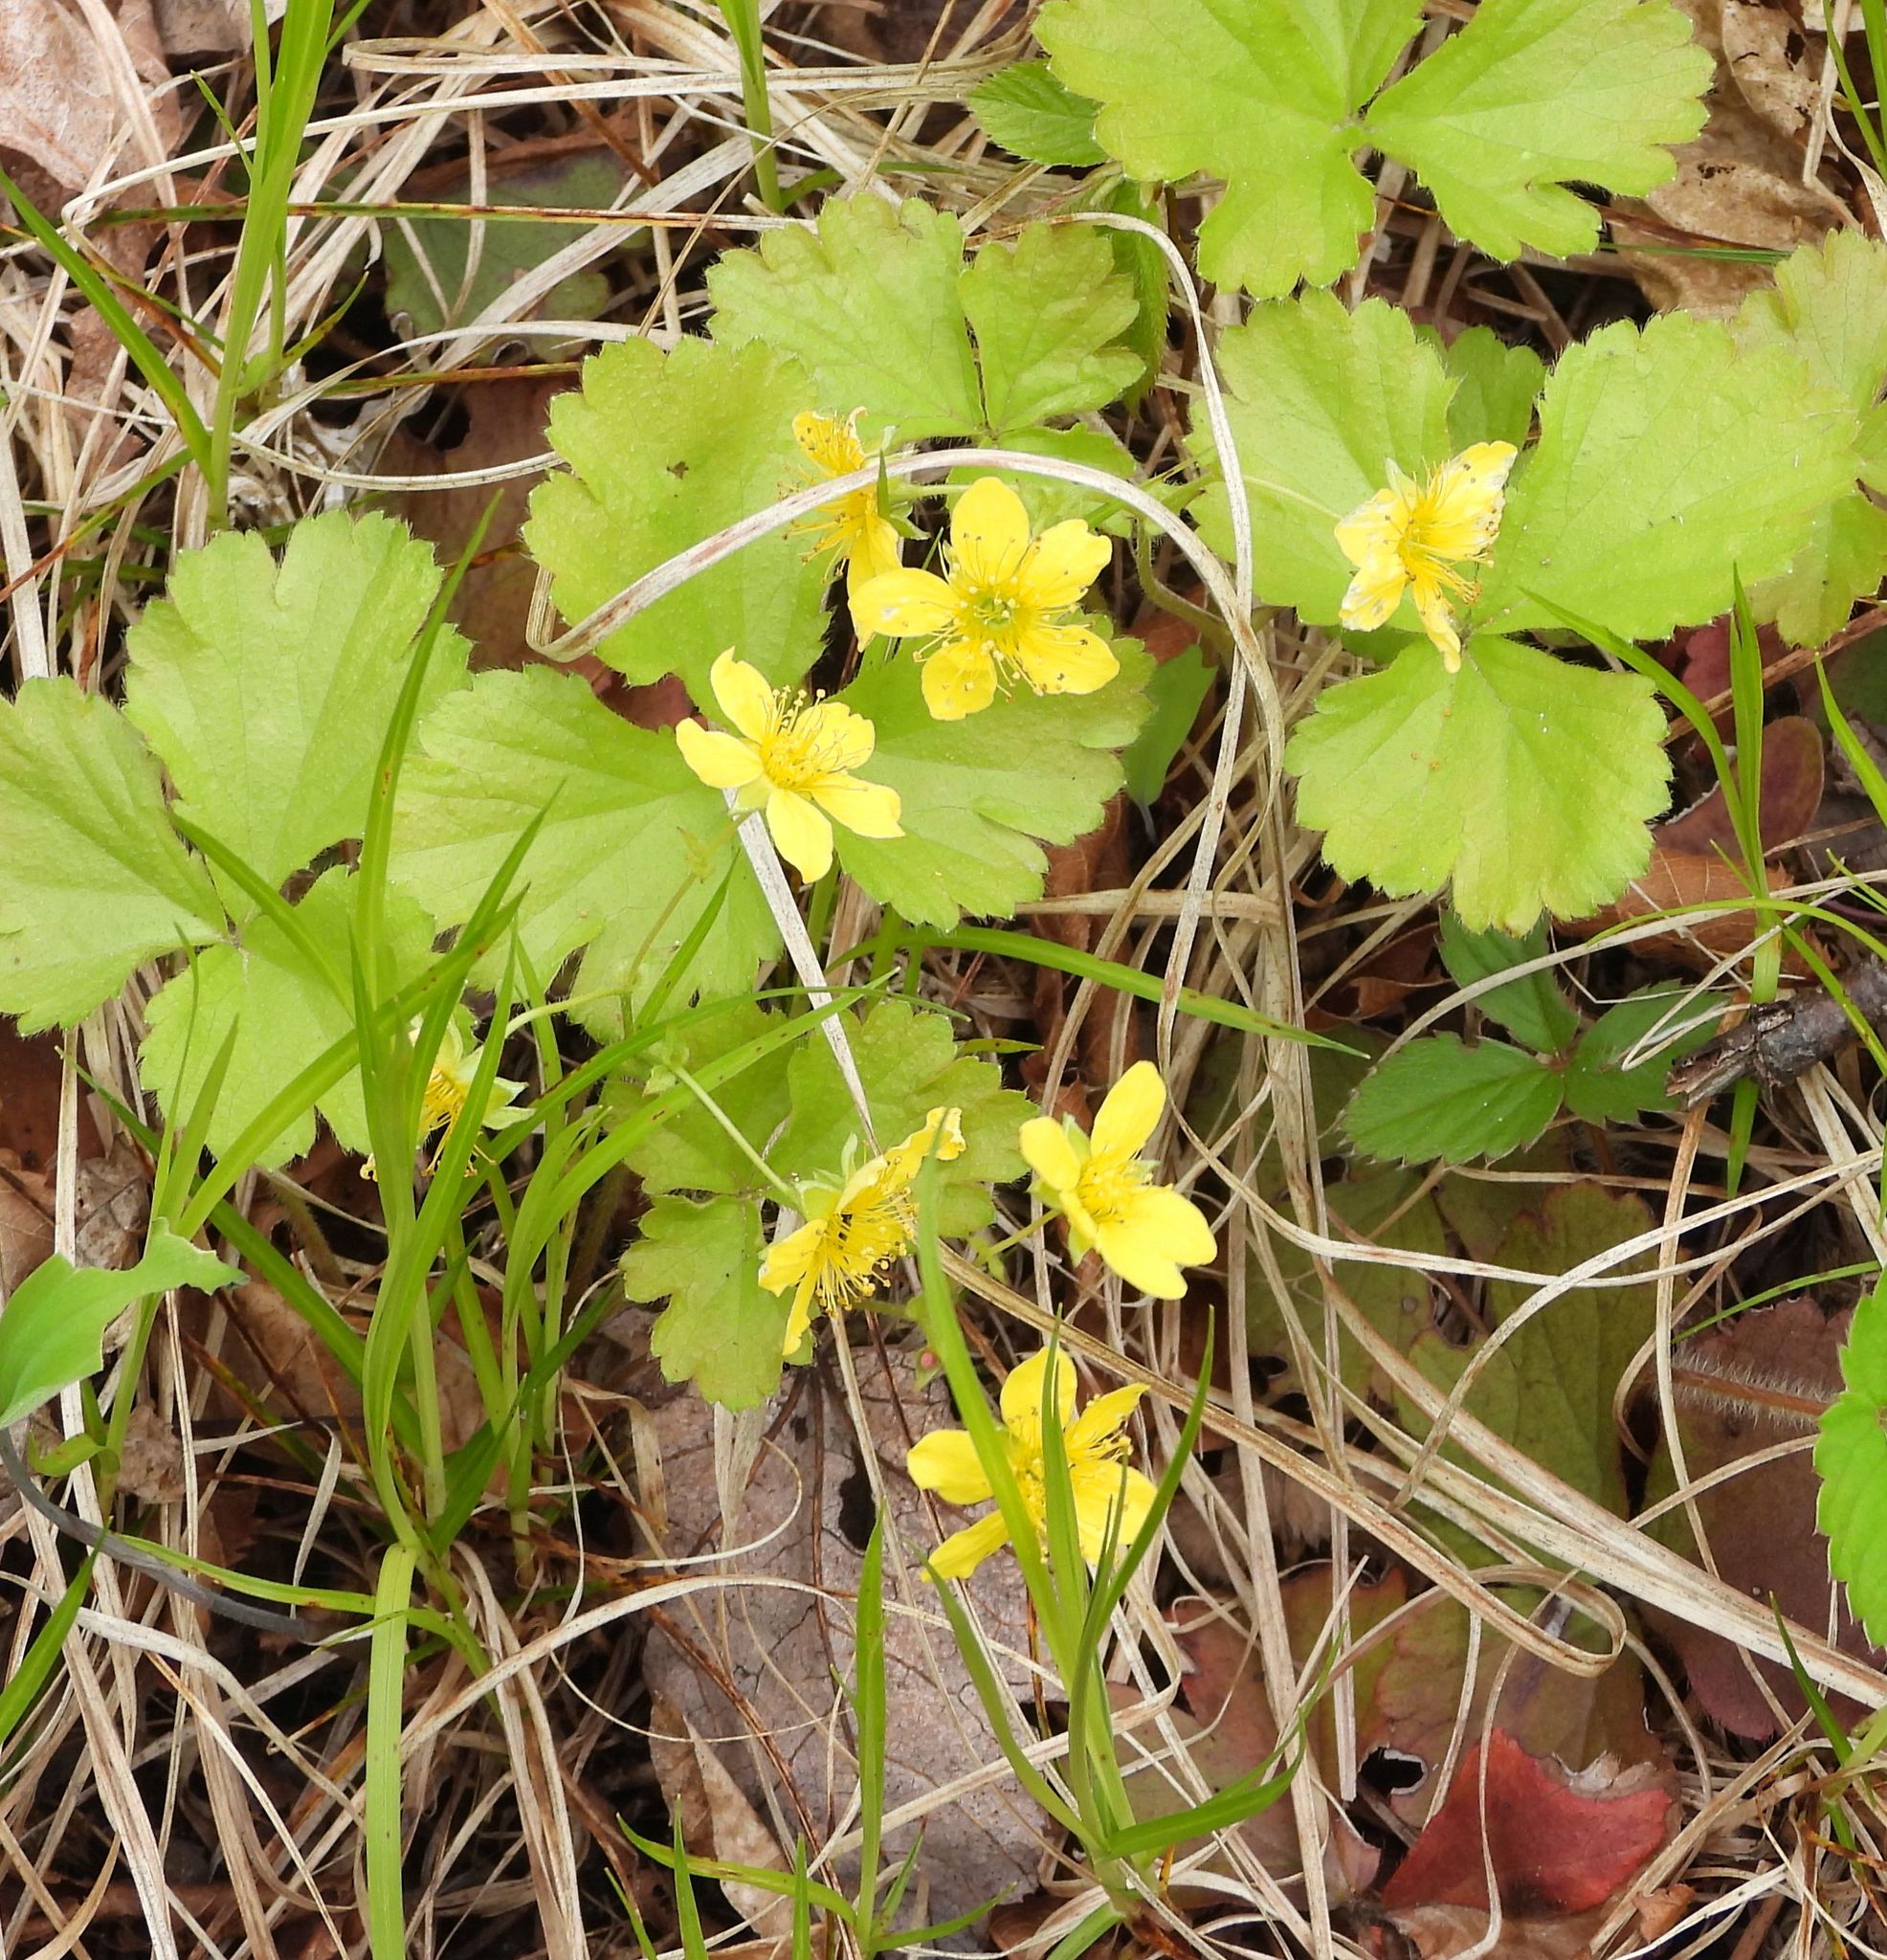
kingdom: Plantae
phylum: Tracheophyta
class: Magnoliopsida
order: Rosales
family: Rosaceae
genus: Geum
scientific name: Geum fragarioides
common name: Appalachian barren strawberry
